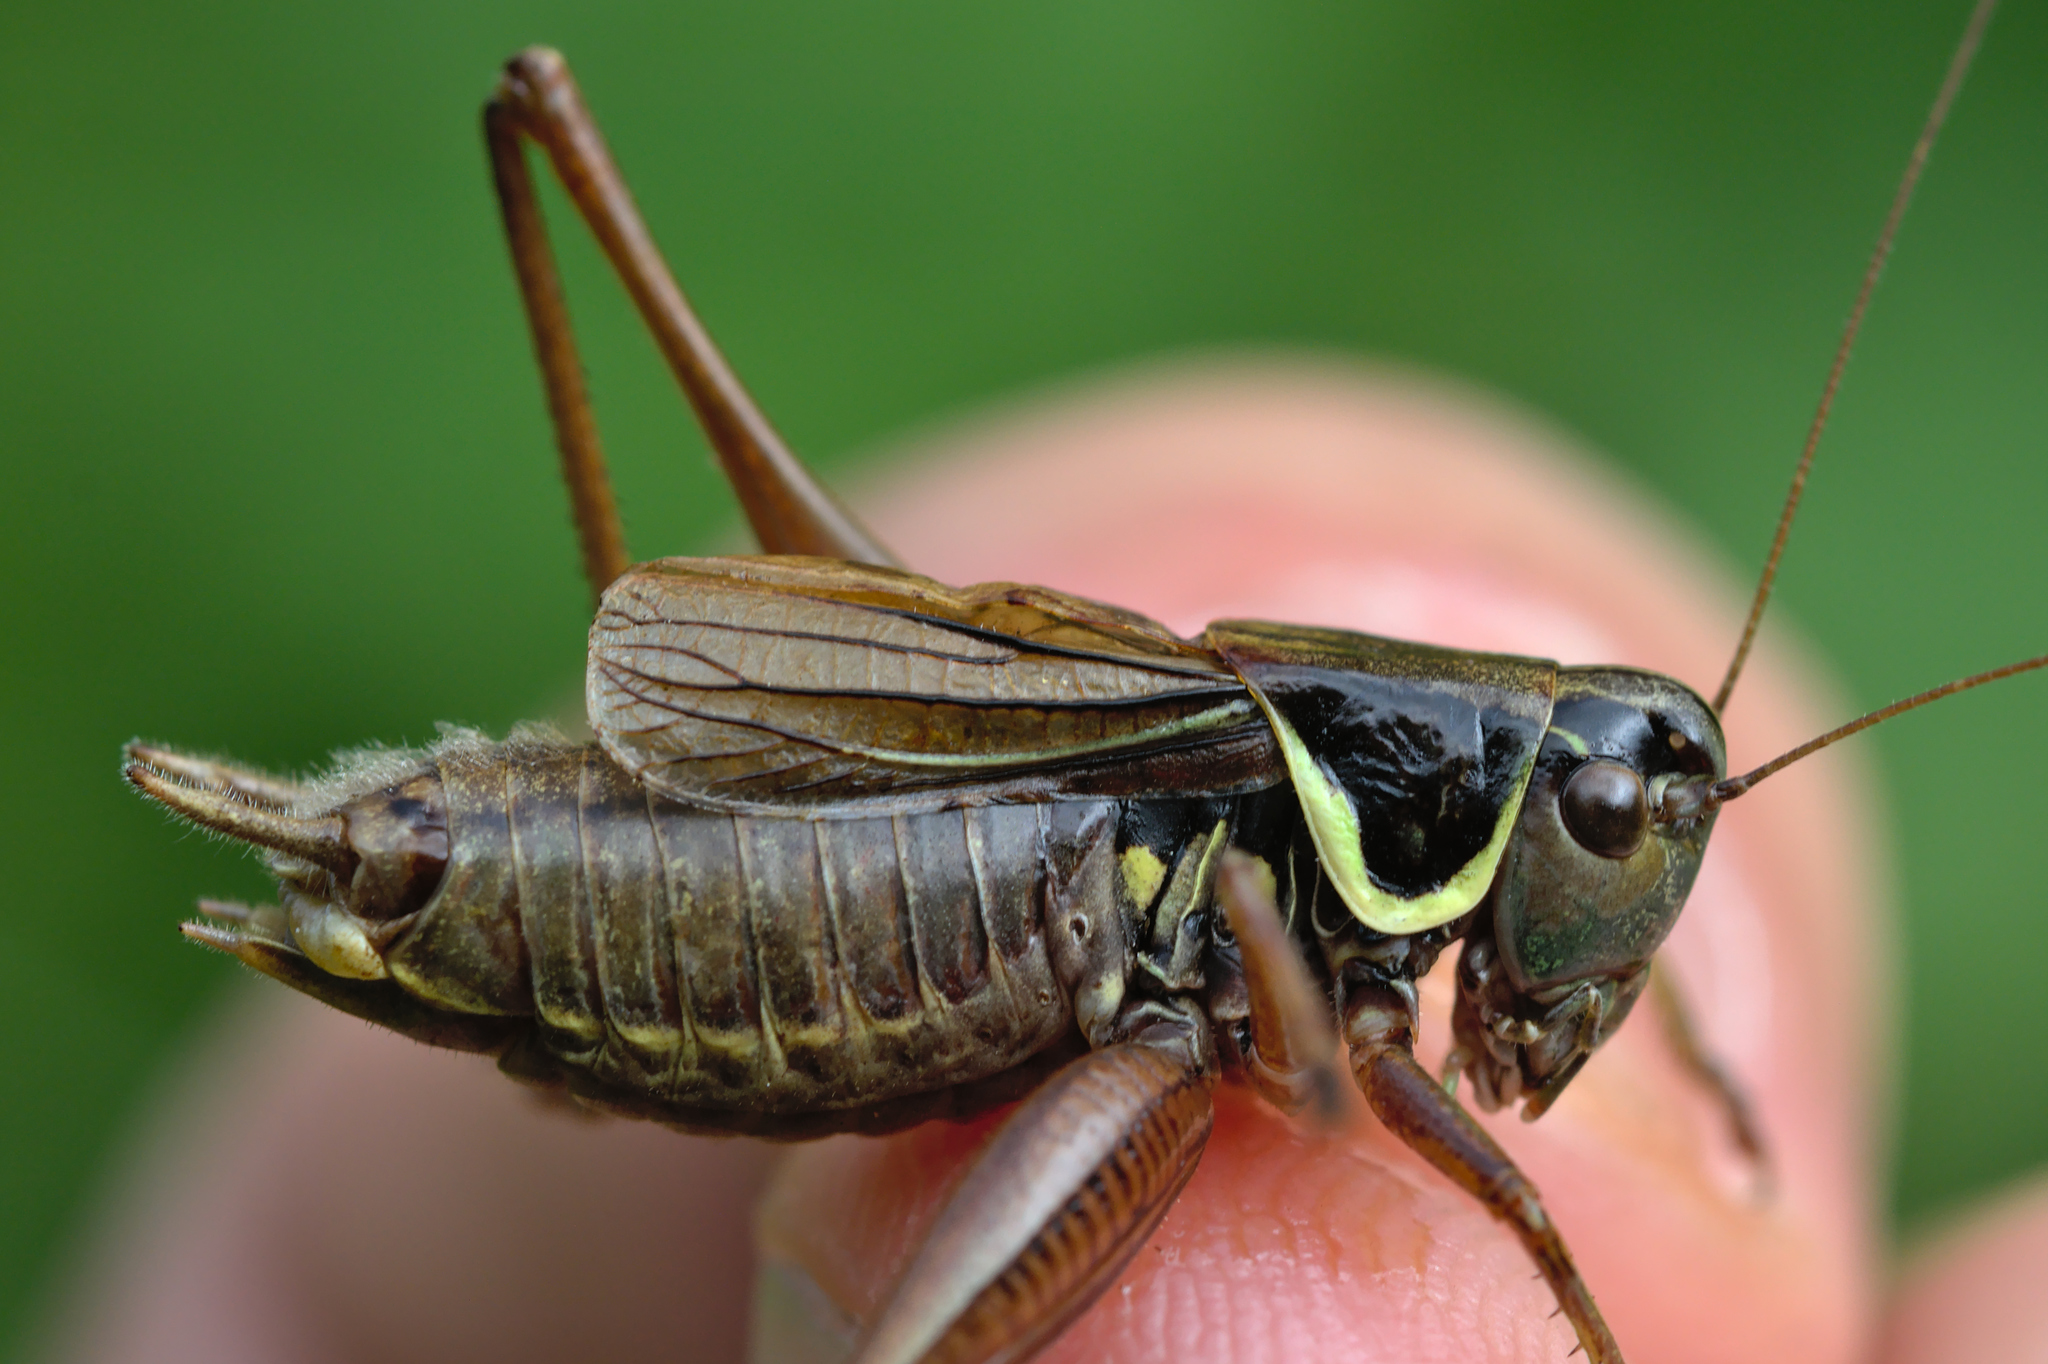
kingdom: Animalia
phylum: Arthropoda
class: Insecta
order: Orthoptera
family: Tettigoniidae
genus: Roeseliana
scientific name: Roeseliana roeselii
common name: Roesel's bush cricket
